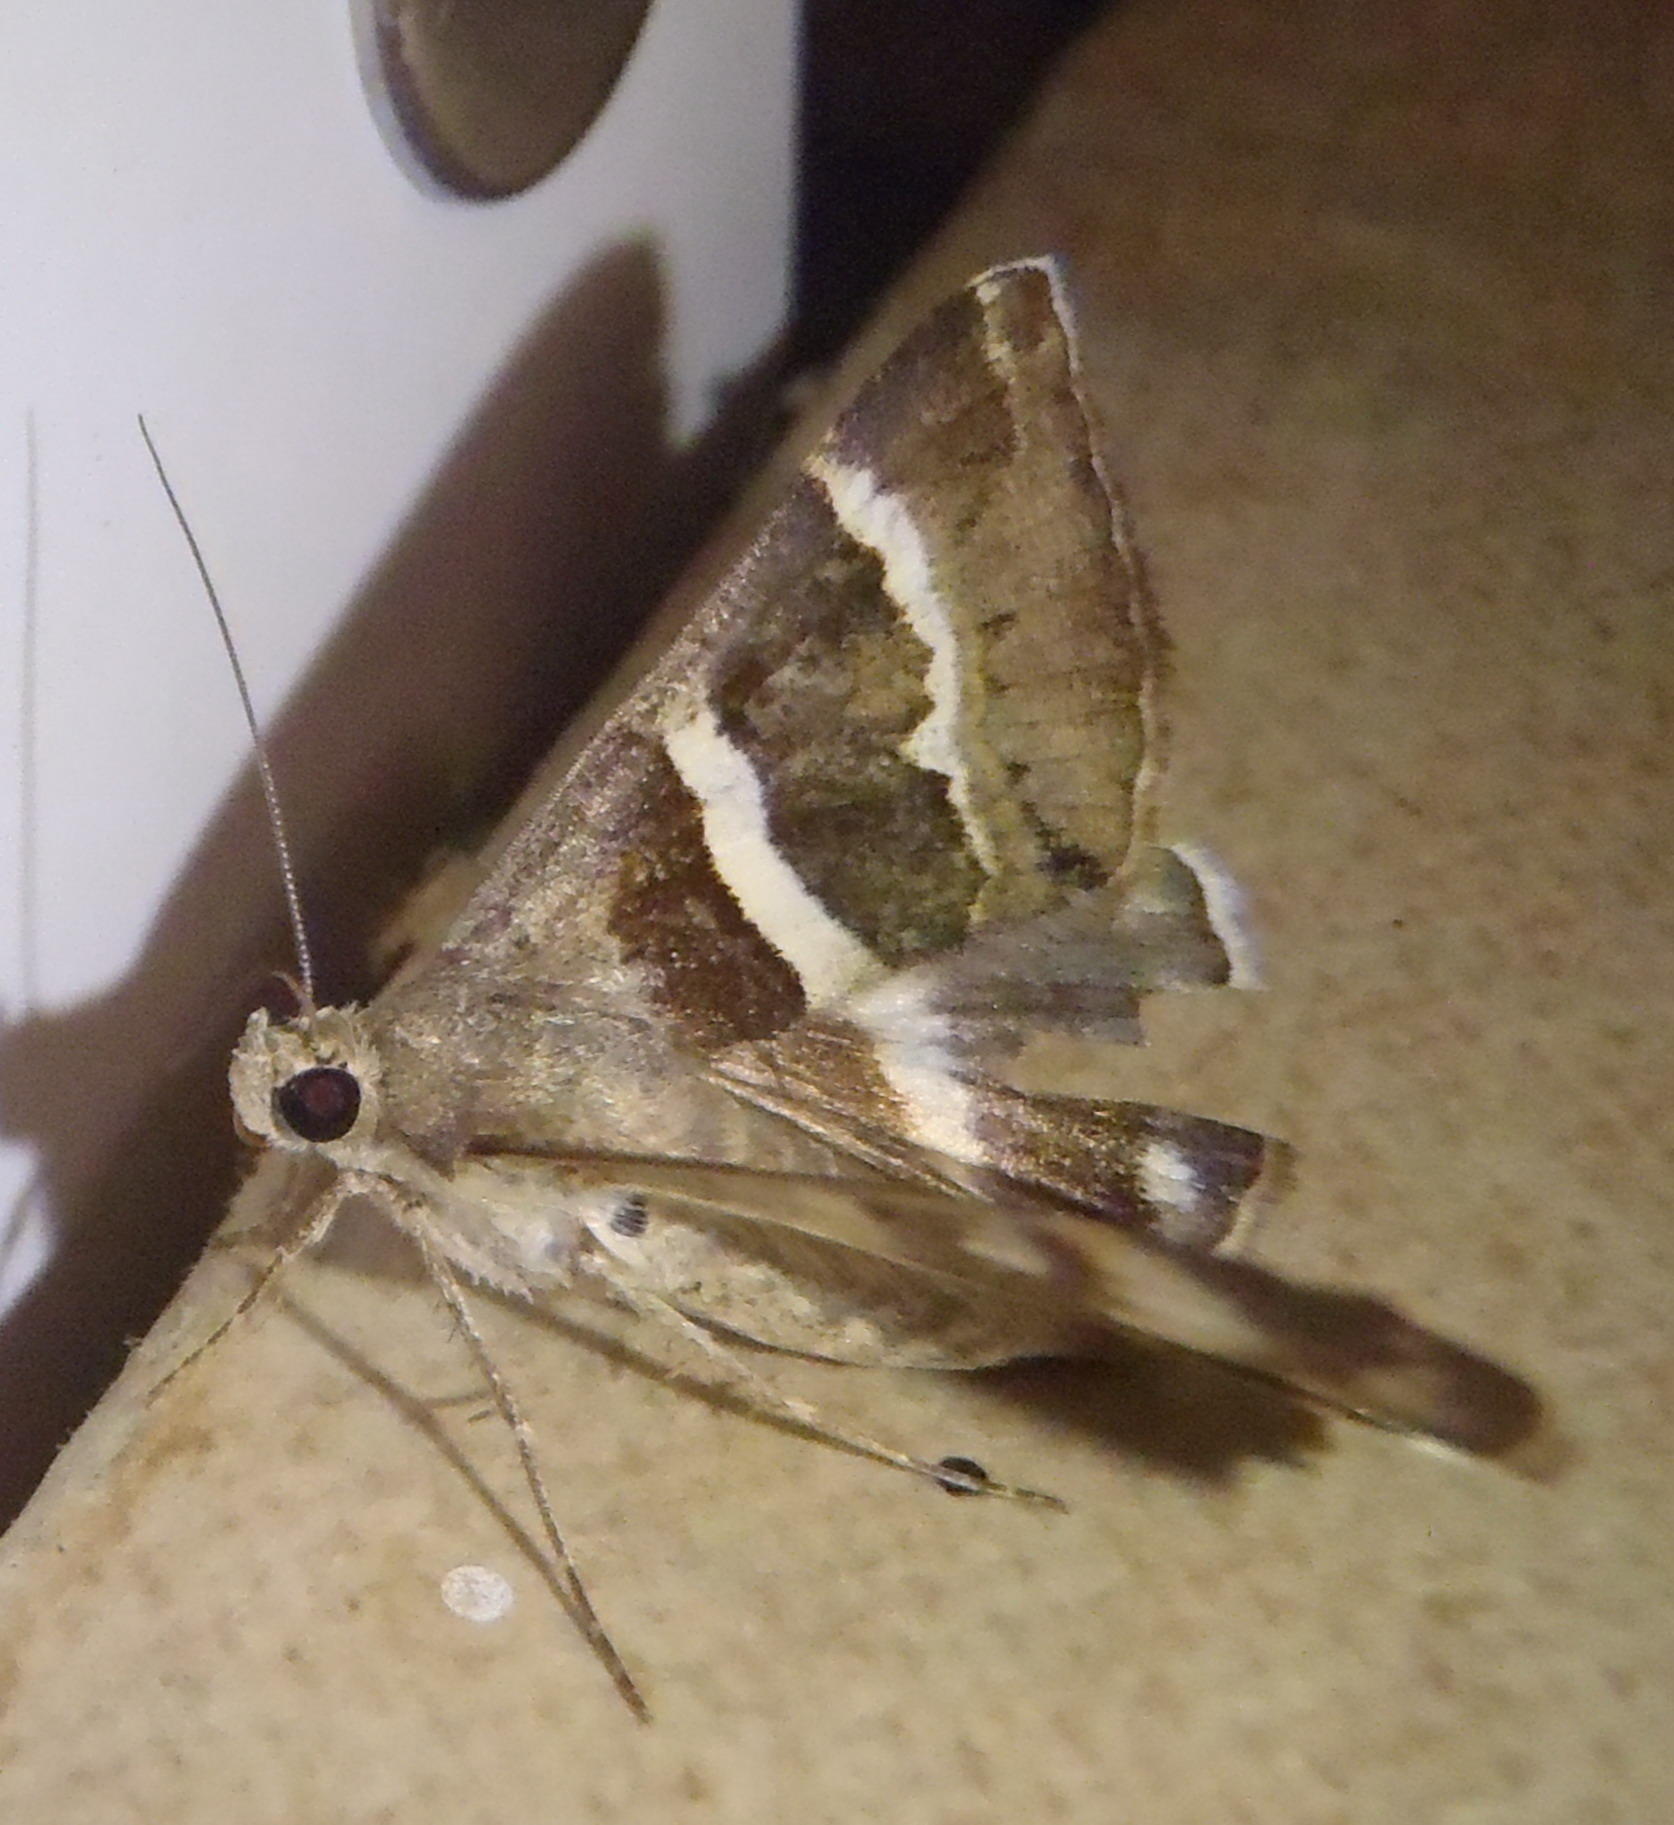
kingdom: Animalia
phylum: Arthropoda
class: Insecta
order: Lepidoptera
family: Erebidae
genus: Grammodes
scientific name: Grammodes stolida
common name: Geometrician
